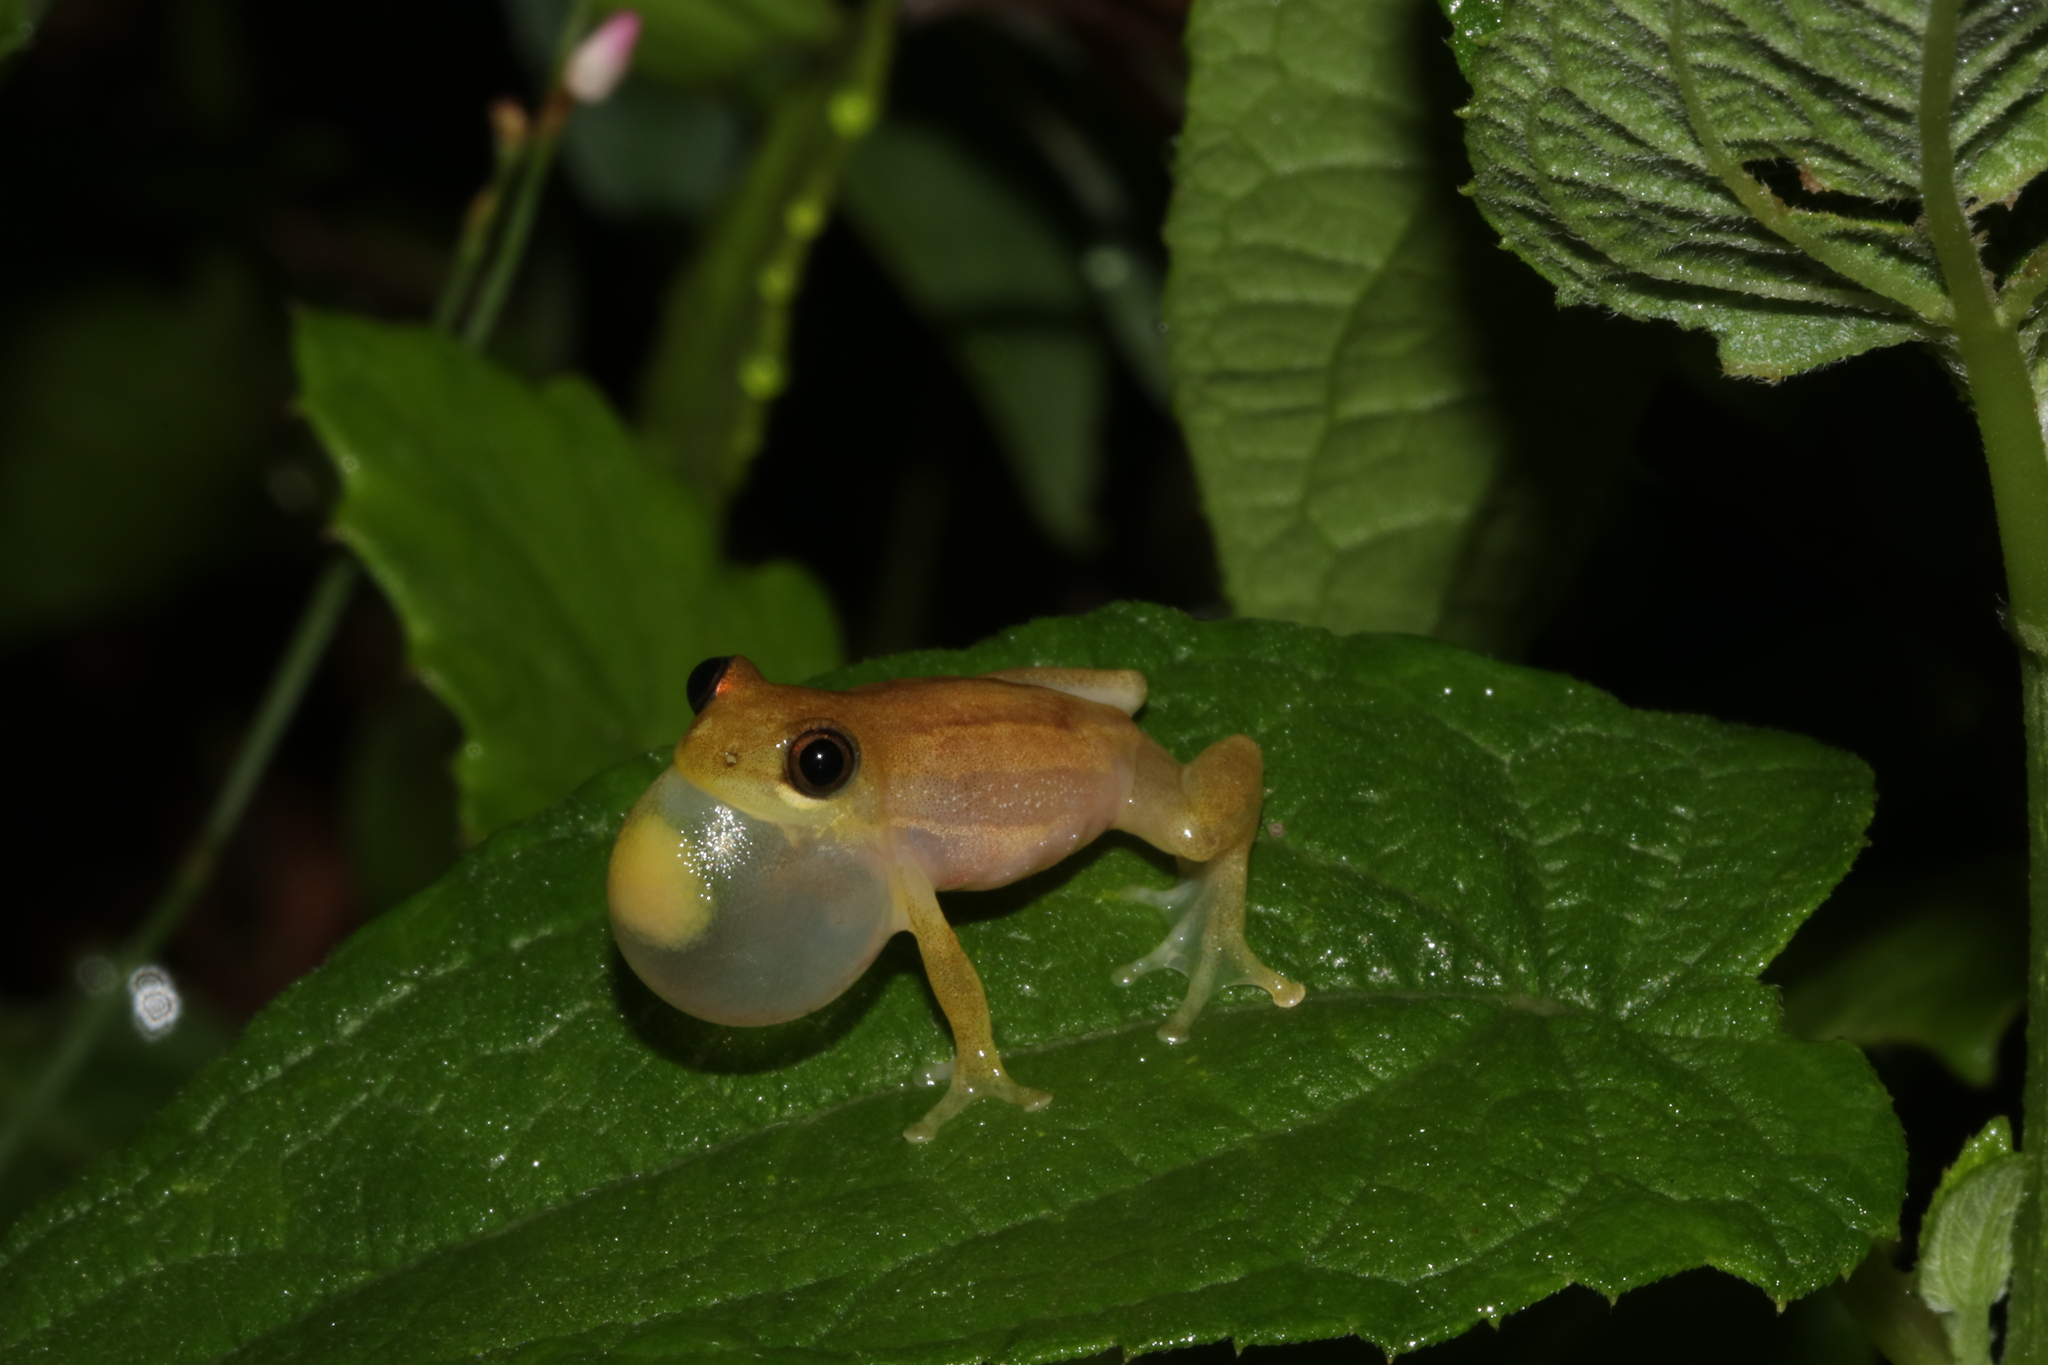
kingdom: Animalia
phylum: Chordata
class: Amphibia
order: Anura
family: Hyperoliidae
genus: Afrixalus
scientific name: Afrixalus brachycnemis
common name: Lesser banana frog
